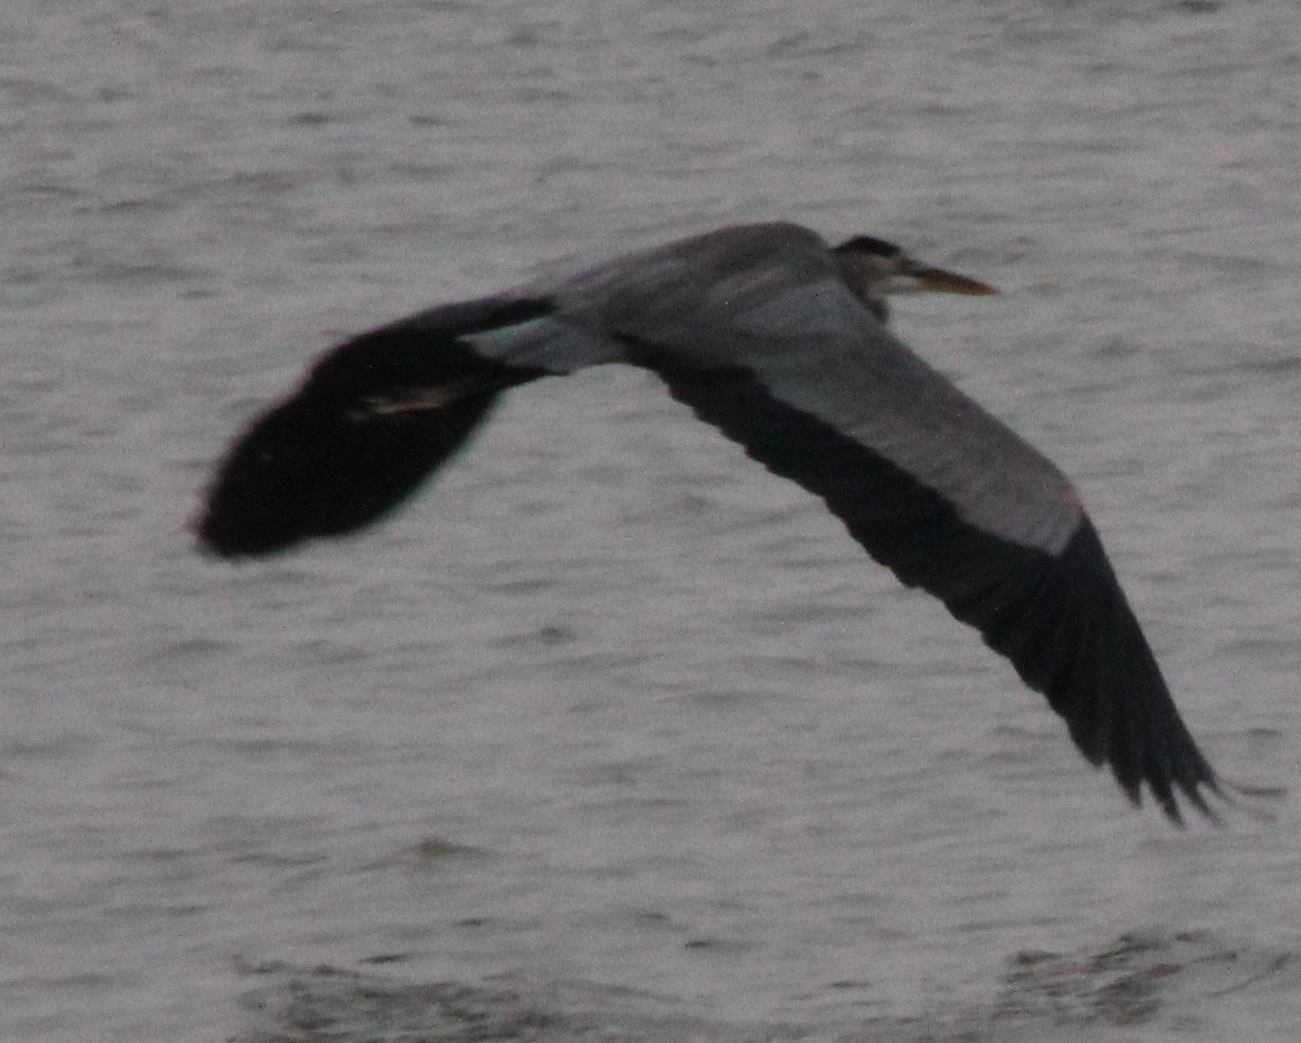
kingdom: Animalia
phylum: Chordata
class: Aves
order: Pelecaniformes
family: Ardeidae
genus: Ardea
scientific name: Ardea herodias
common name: Great blue heron
